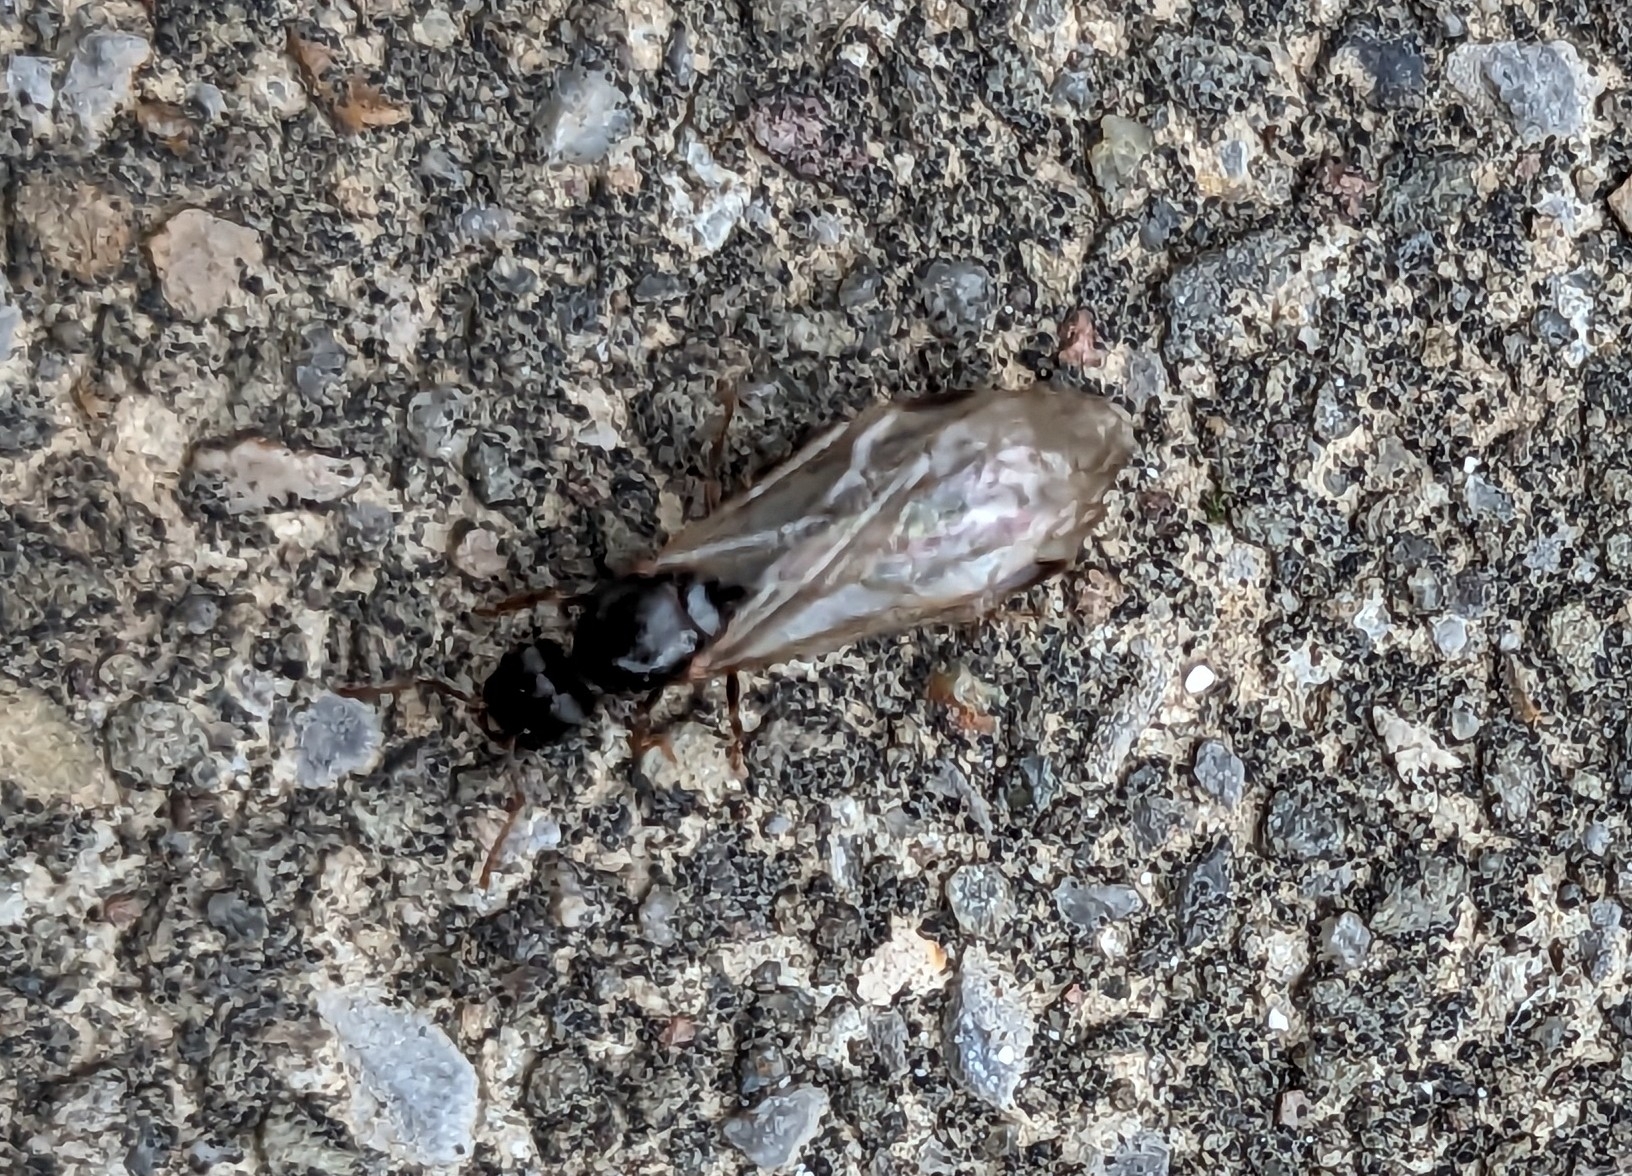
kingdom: Animalia
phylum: Arthropoda
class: Insecta
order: Hymenoptera
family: Formicidae
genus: Tetramorium
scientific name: Tetramorium immigrans
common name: Pavement ant
